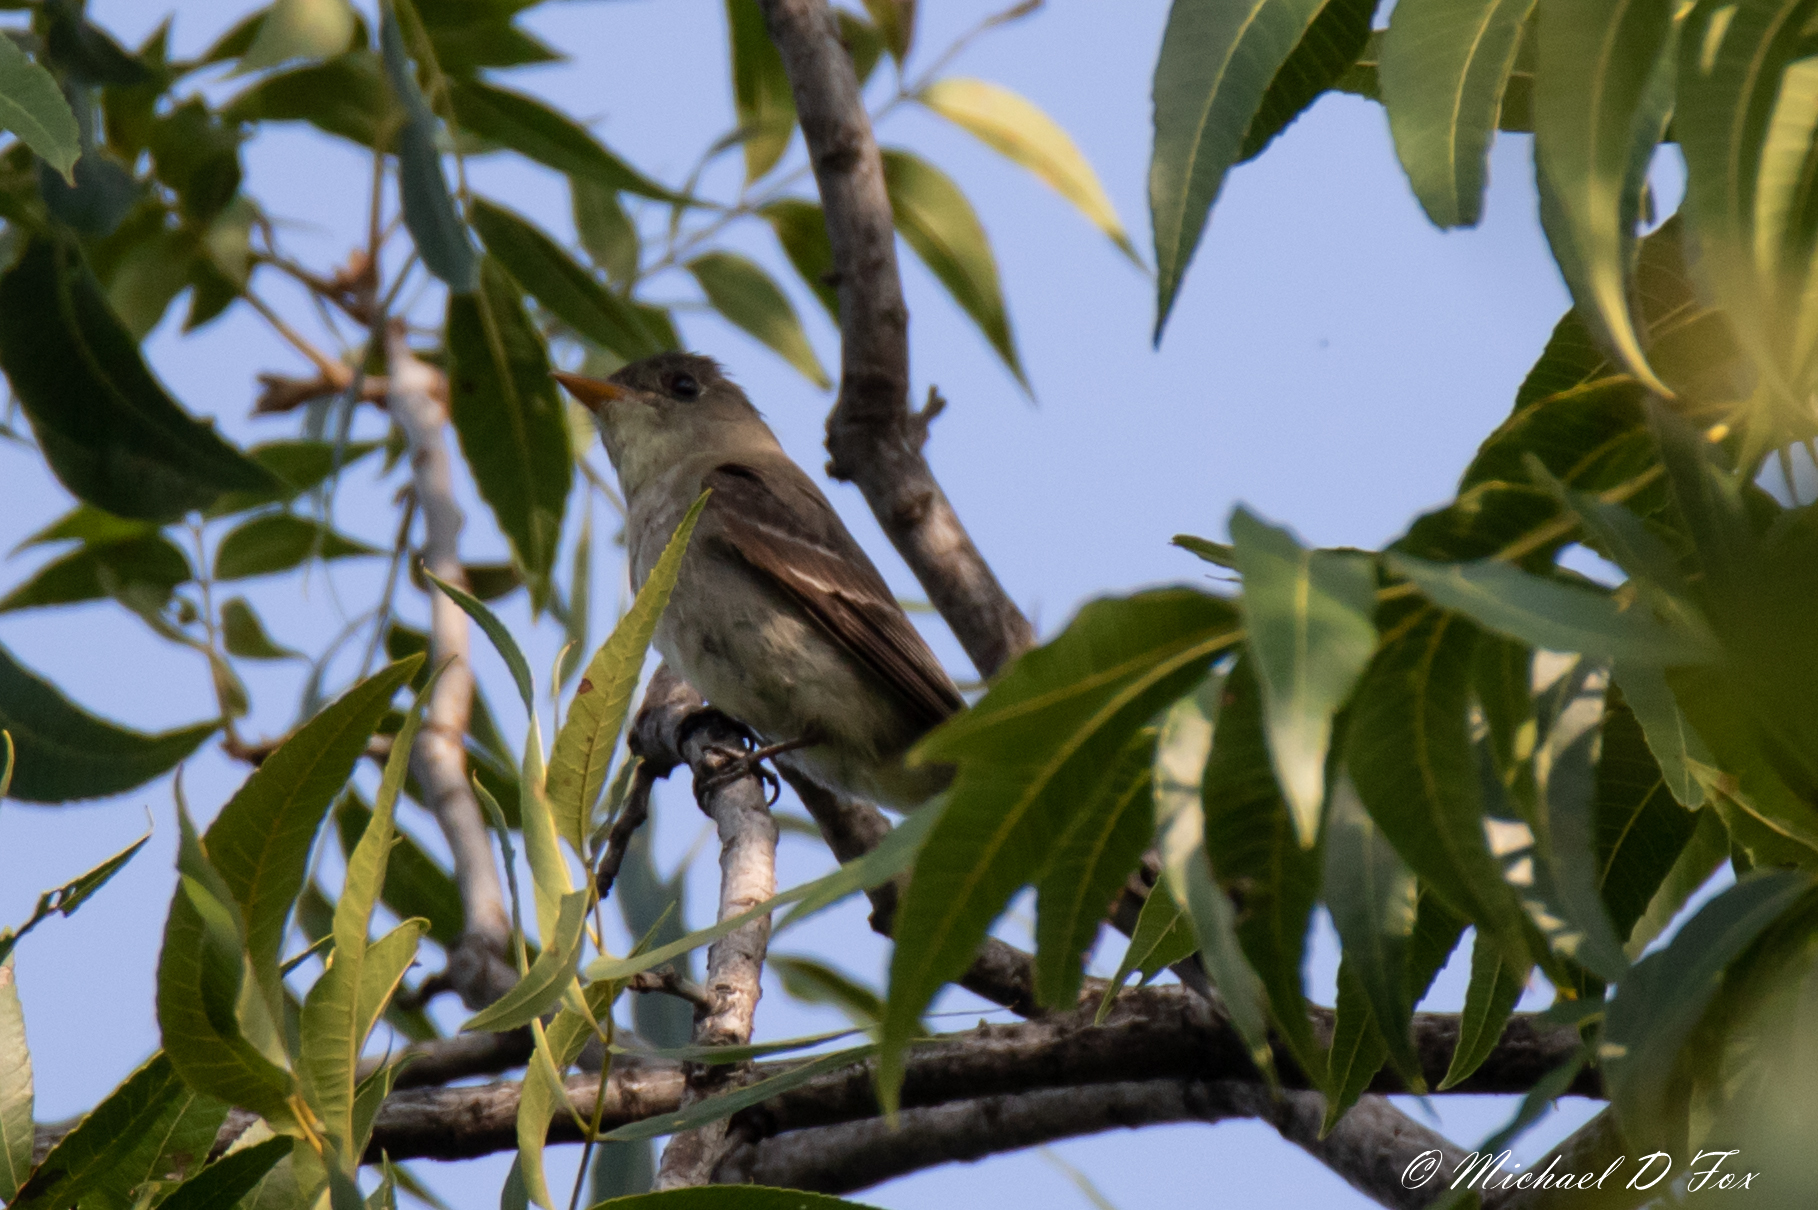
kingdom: Animalia
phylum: Chordata
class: Aves
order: Passeriformes
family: Tyrannidae
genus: Contopus
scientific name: Contopus virens
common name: Eastern wood-pewee
